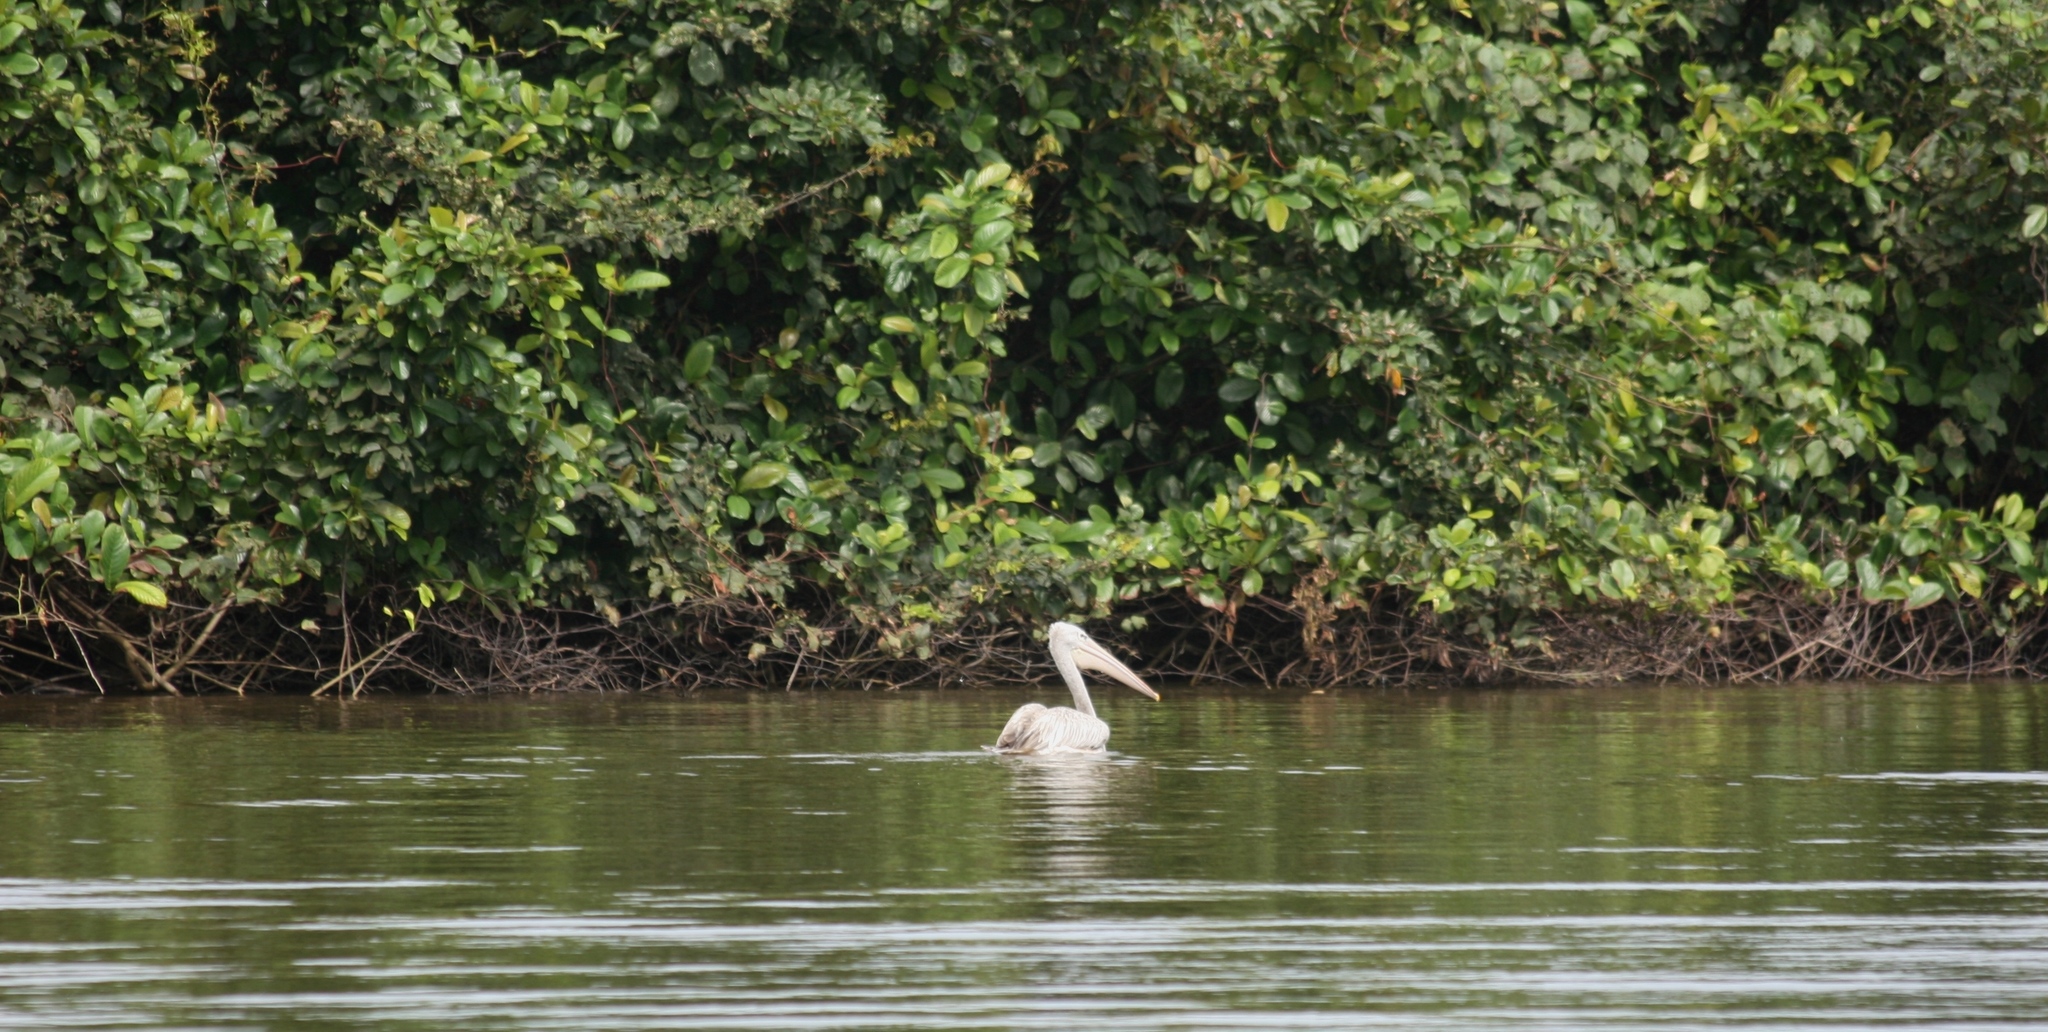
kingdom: Animalia
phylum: Chordata
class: Aves
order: Pelecaniformes
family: Pelecanidae
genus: Pelecanus
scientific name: Pelecanus rufescens
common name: Pink-backed pelican
